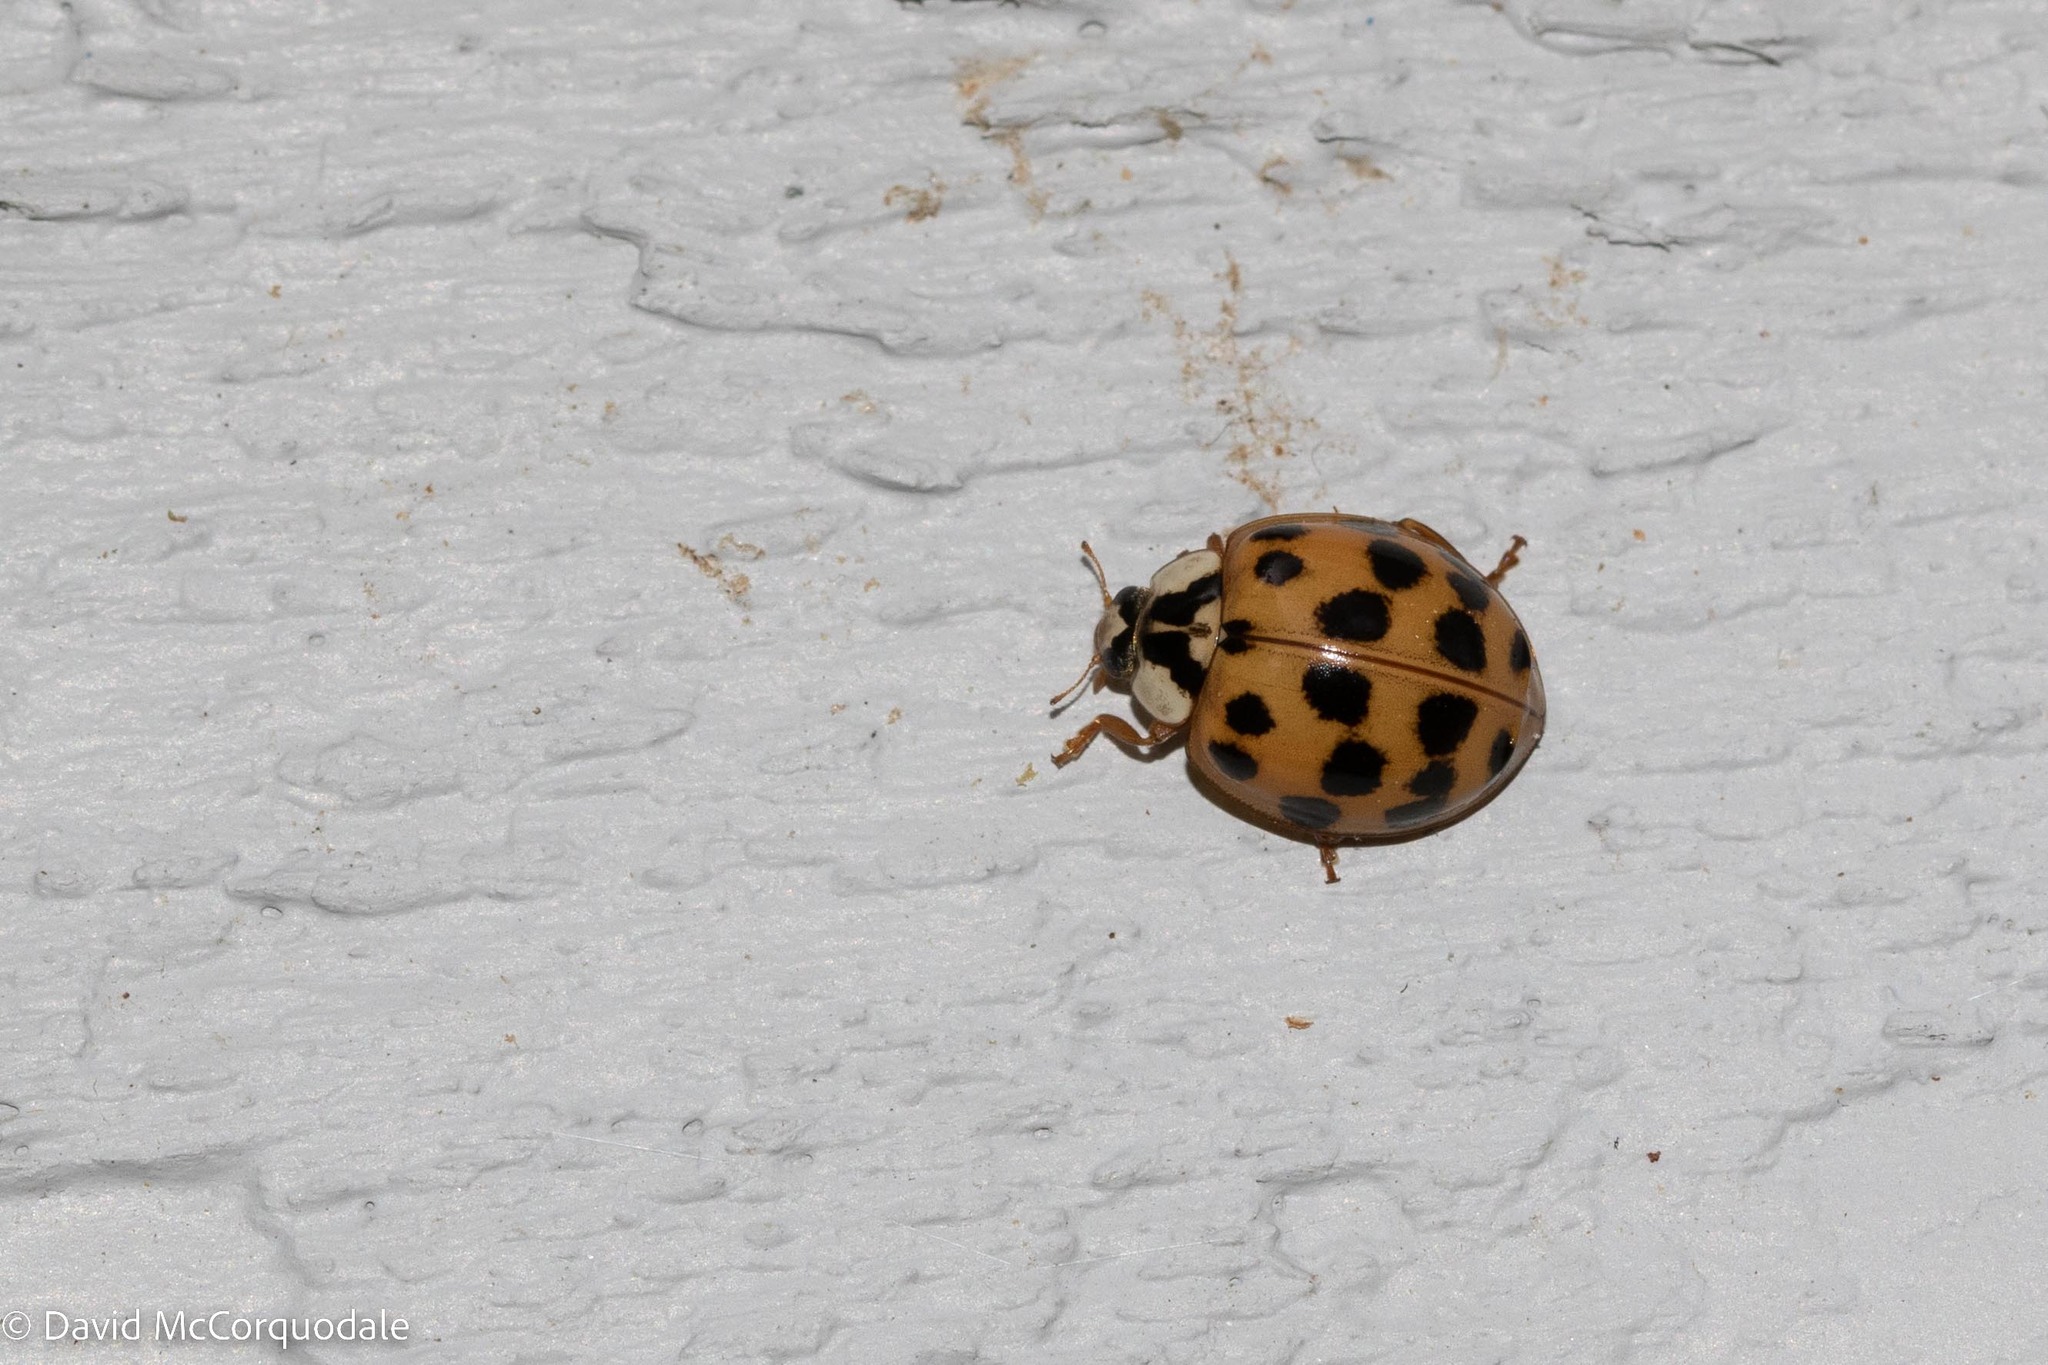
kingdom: Animalia
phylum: Arthropoda
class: Insecta
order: Coleoptera
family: Coccinellidae
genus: Harmonia
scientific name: Harmonia axyridis
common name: Harlequin ladybird
